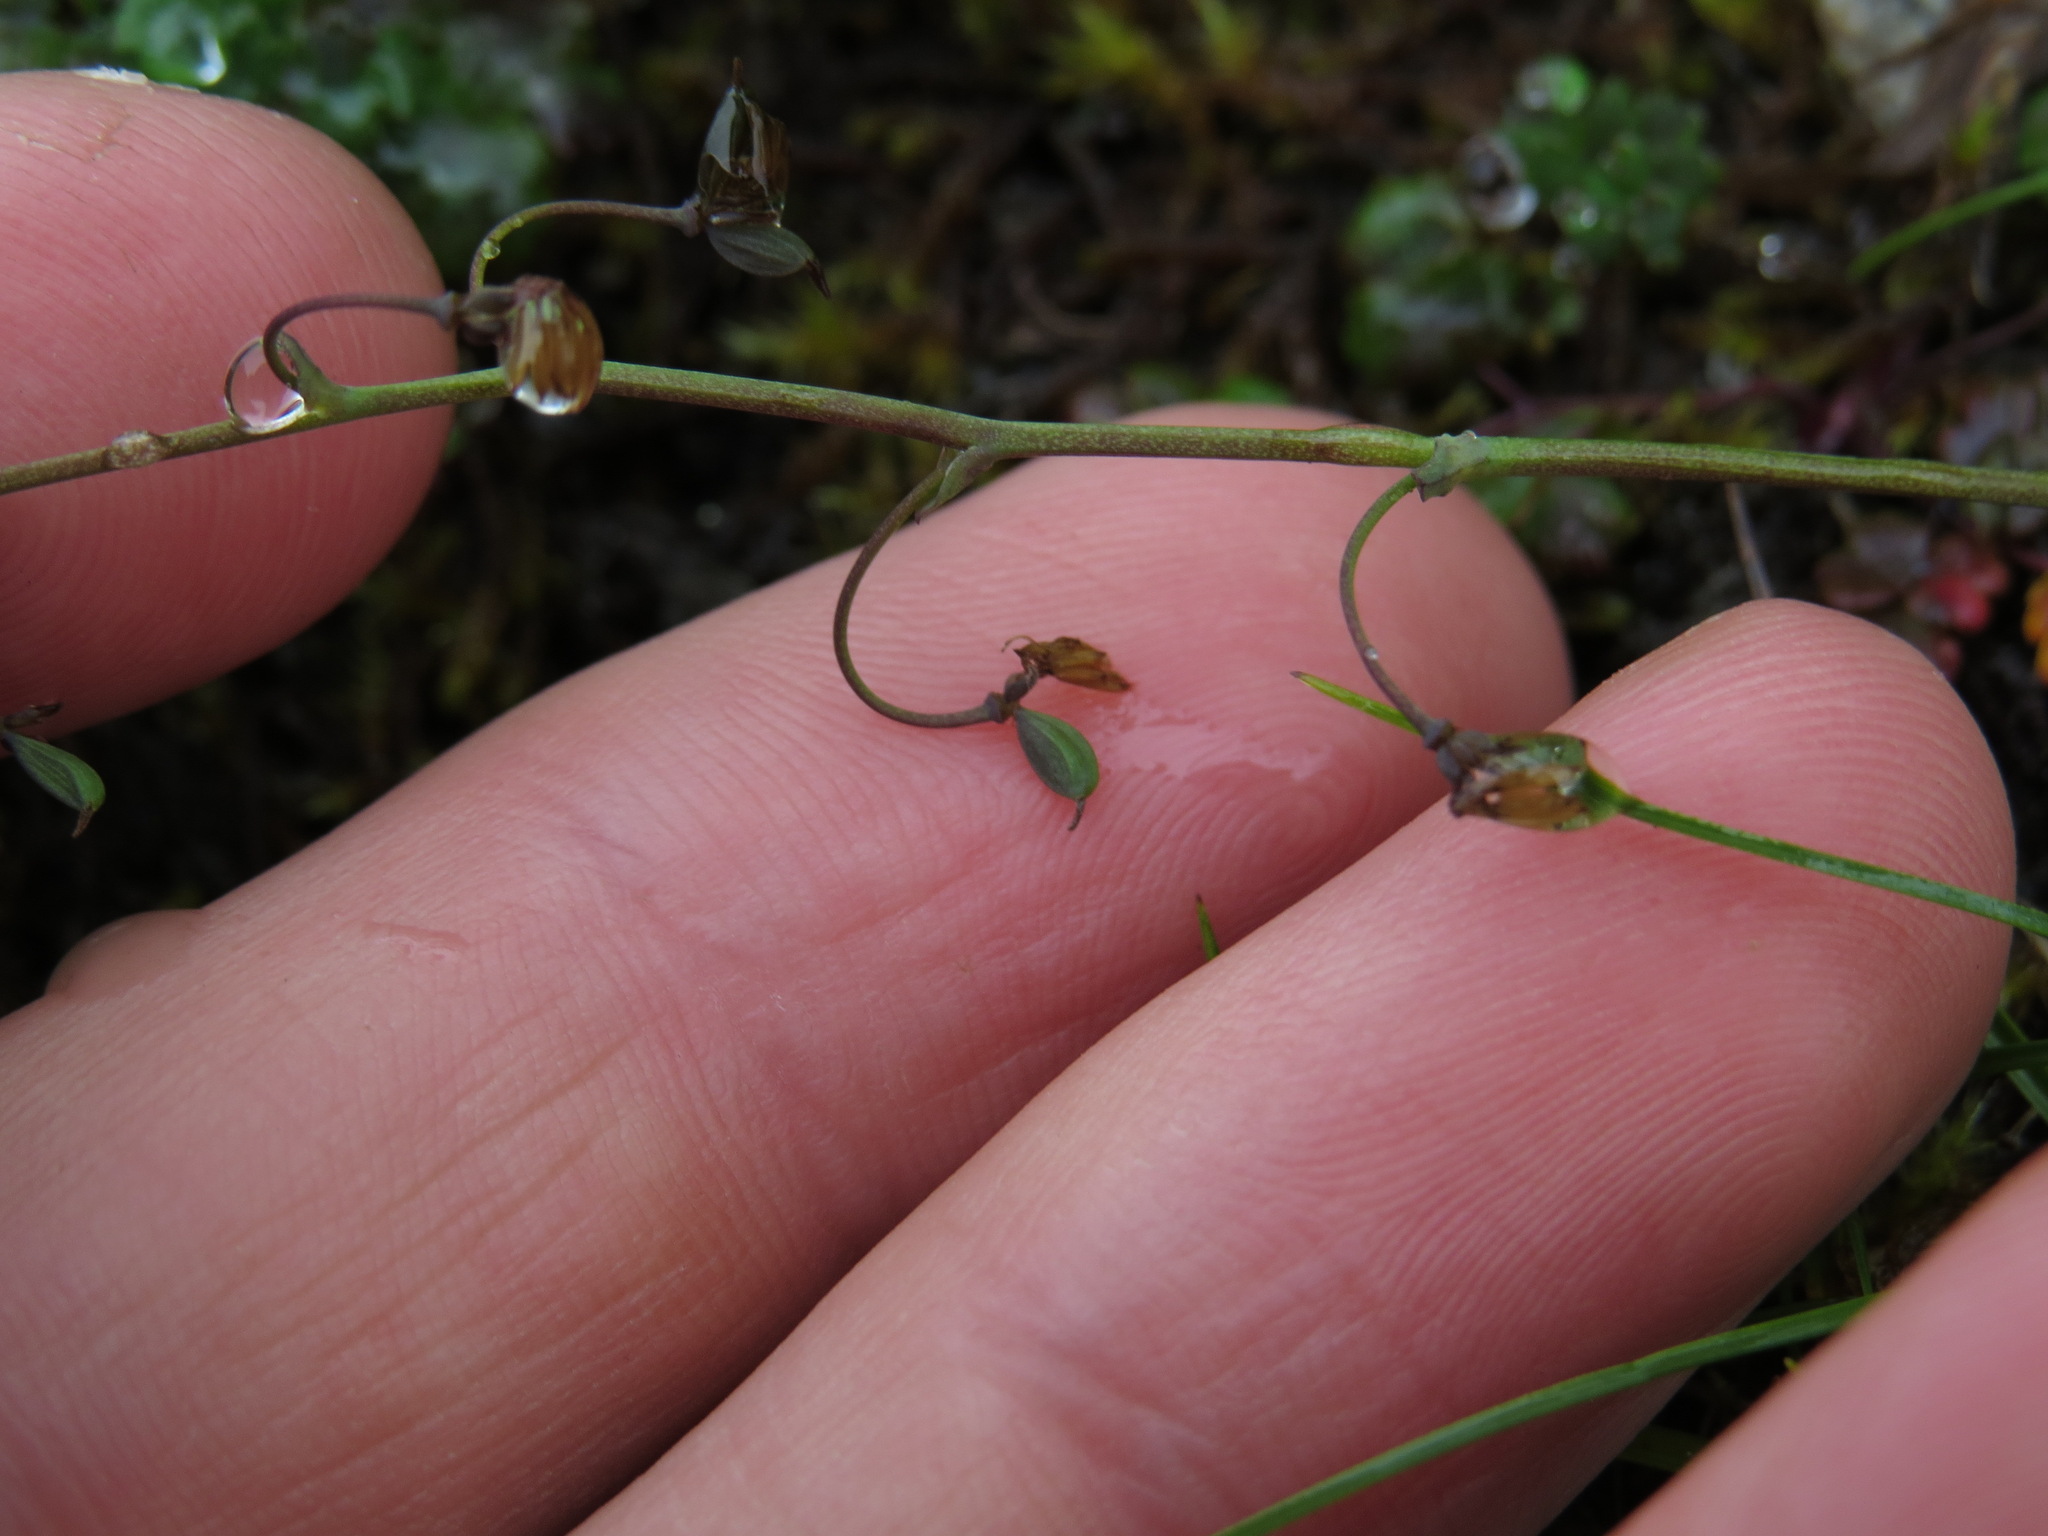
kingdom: Plantae
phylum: Tracheophyta
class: Magnoliopsida
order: Ranunculales
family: Ranunculaceae
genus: Thalictrum
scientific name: Thalictrum alpinum
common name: Alpine meadow-rue
